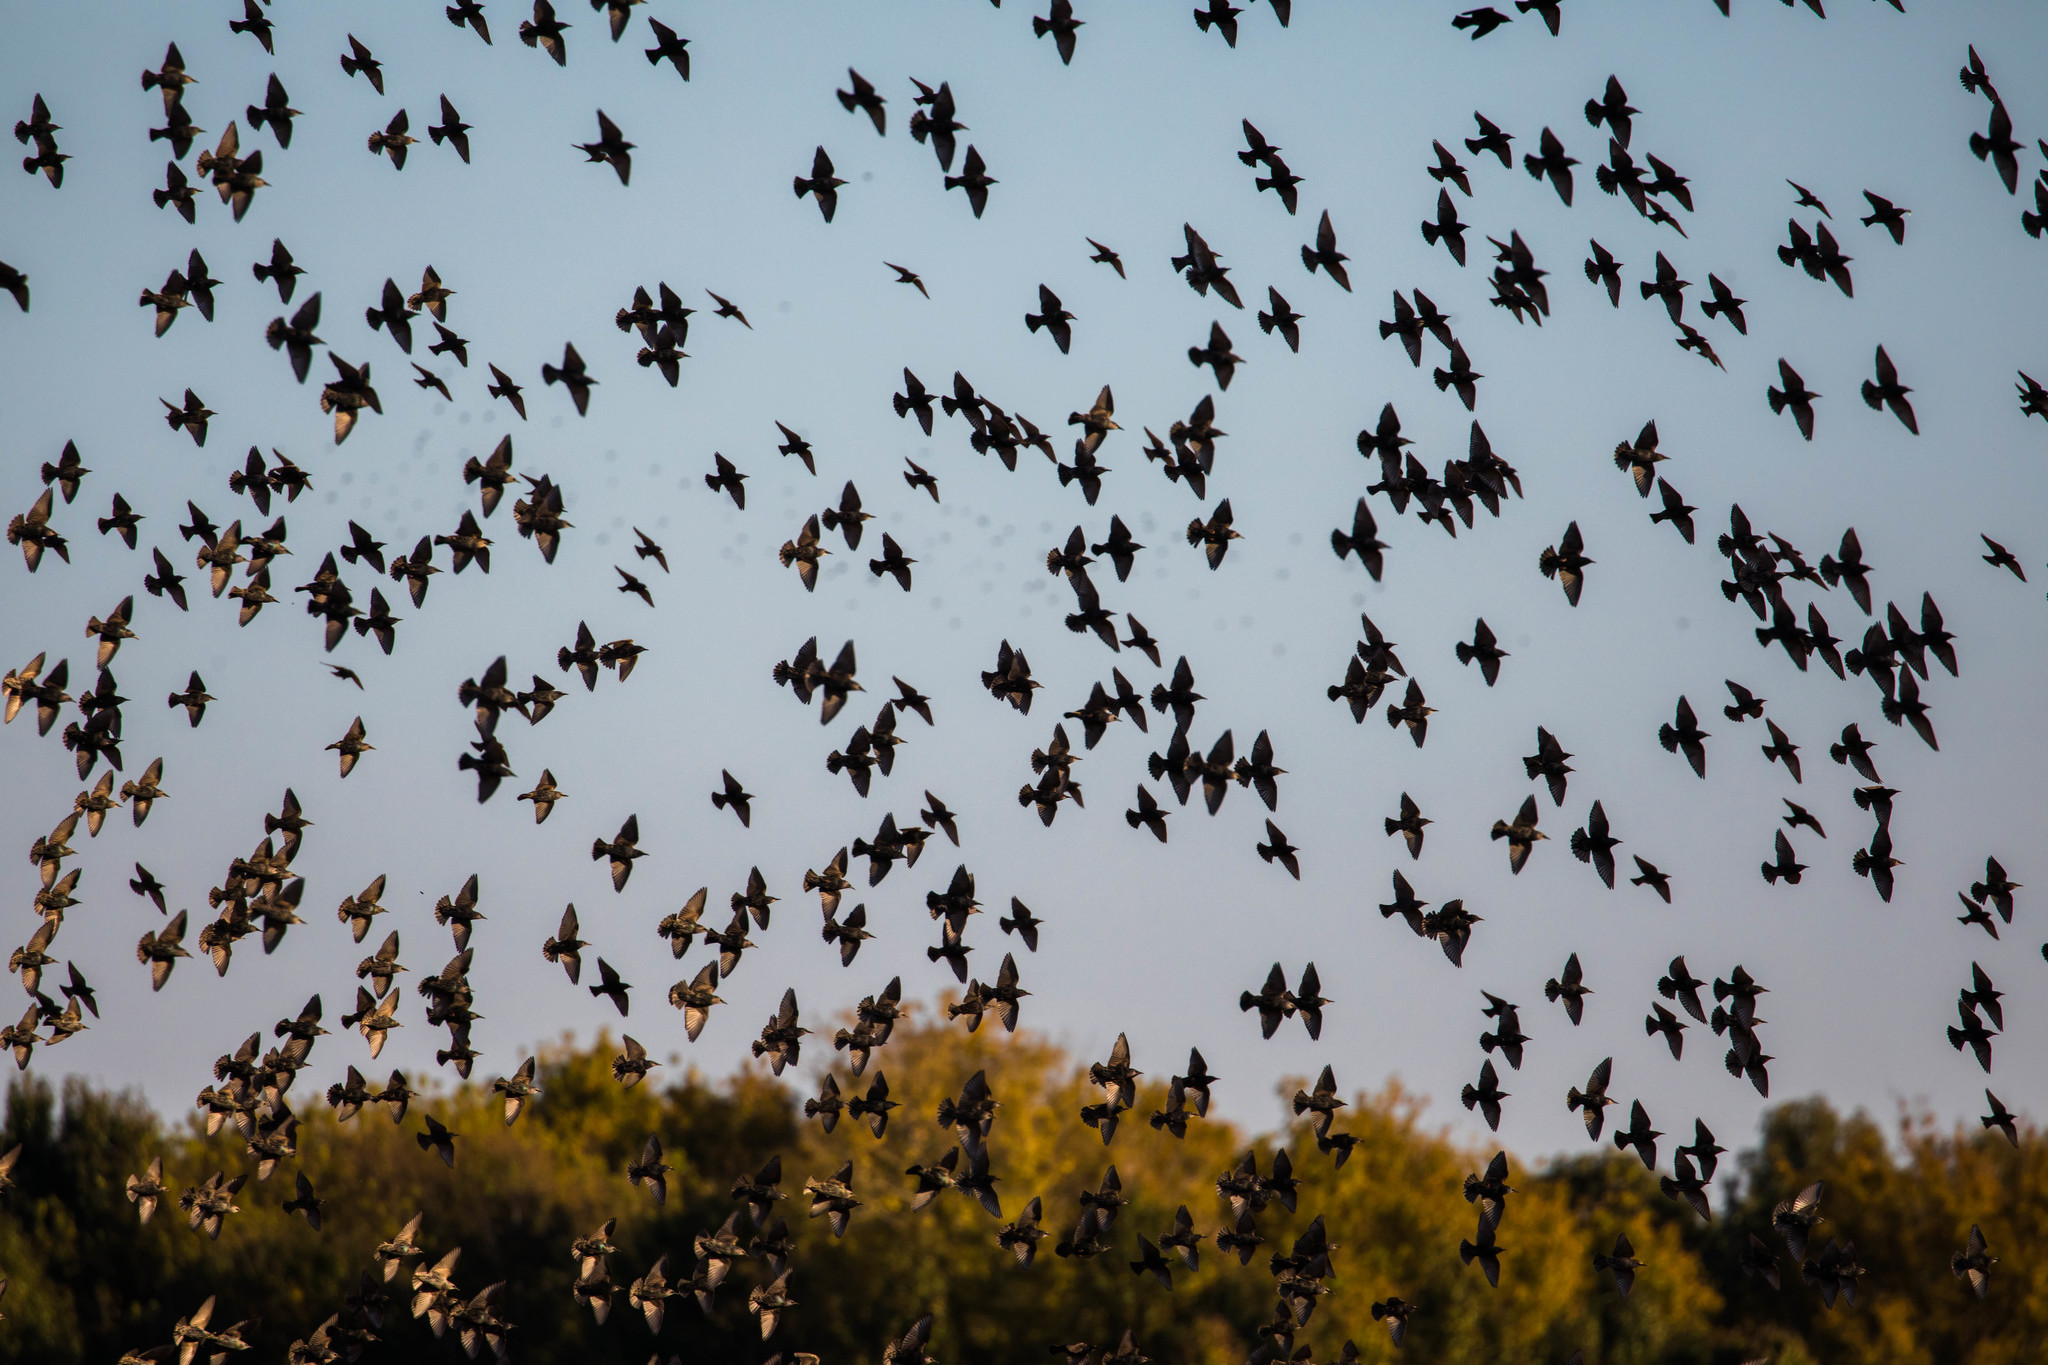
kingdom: Animalia
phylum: Chordata
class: Aves
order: Passeriformes
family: Sturnidae
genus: Sturnus
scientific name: Sturnus vulgaris
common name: Common starling
